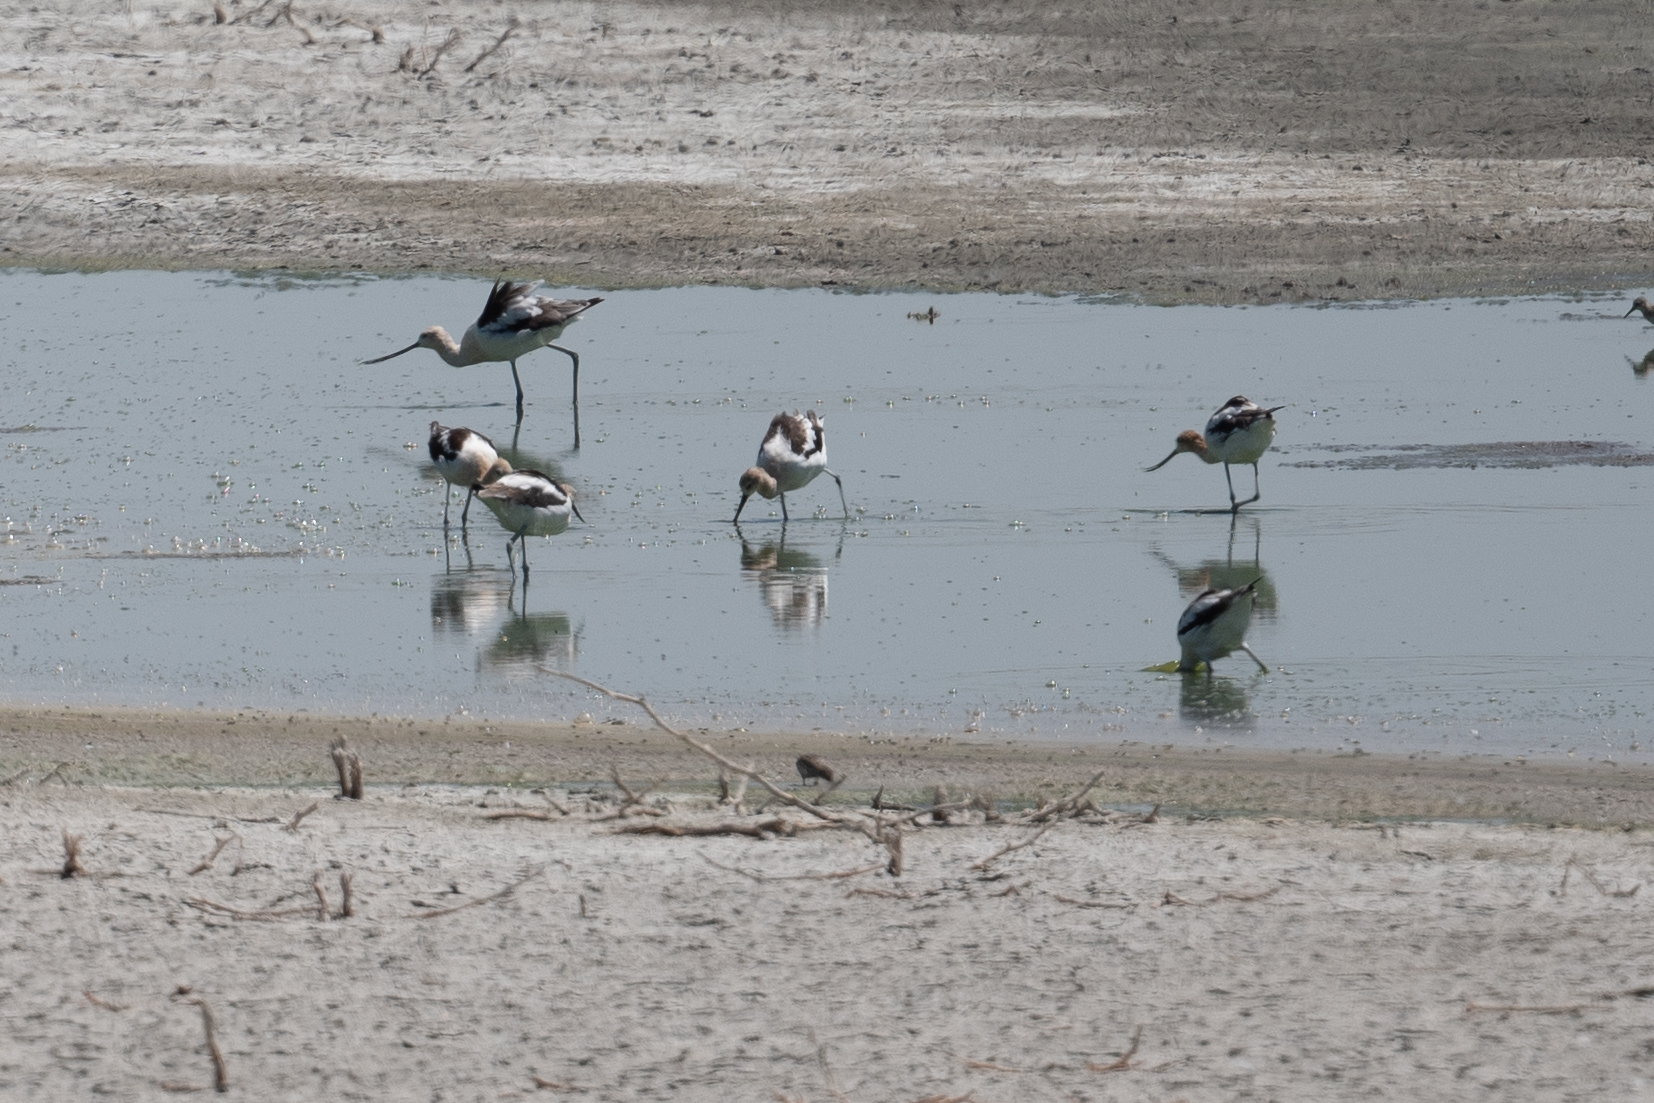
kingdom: Animalia
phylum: Chordata
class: Aves
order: Charadriiformes
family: Recurvirostridae
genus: Recurvirostra
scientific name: Recurvirostra americana
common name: American avocet
